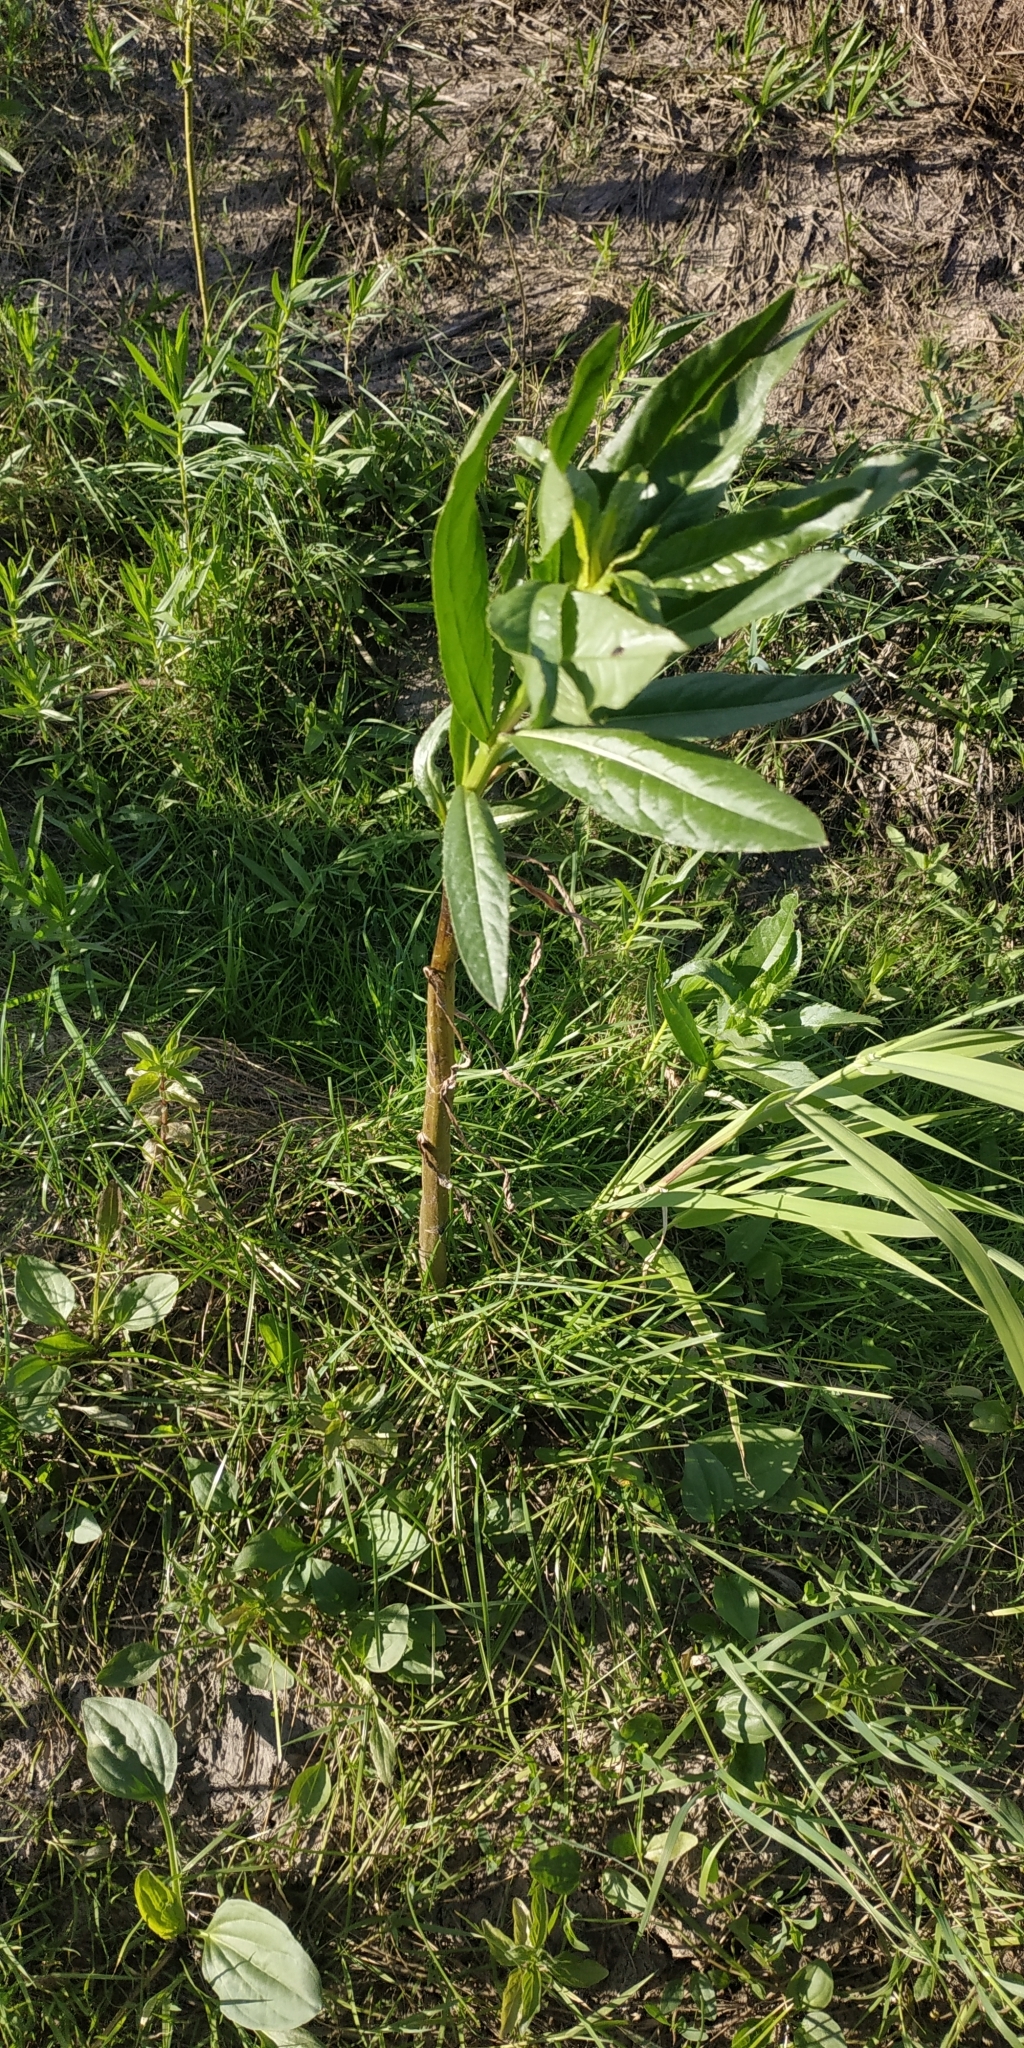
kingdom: Plantae
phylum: Tracheophyta
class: Magnoliopsida
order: Asterales
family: Asteraceae
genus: Cirsium
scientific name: Cirsium arvense
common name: Creeping thistle
